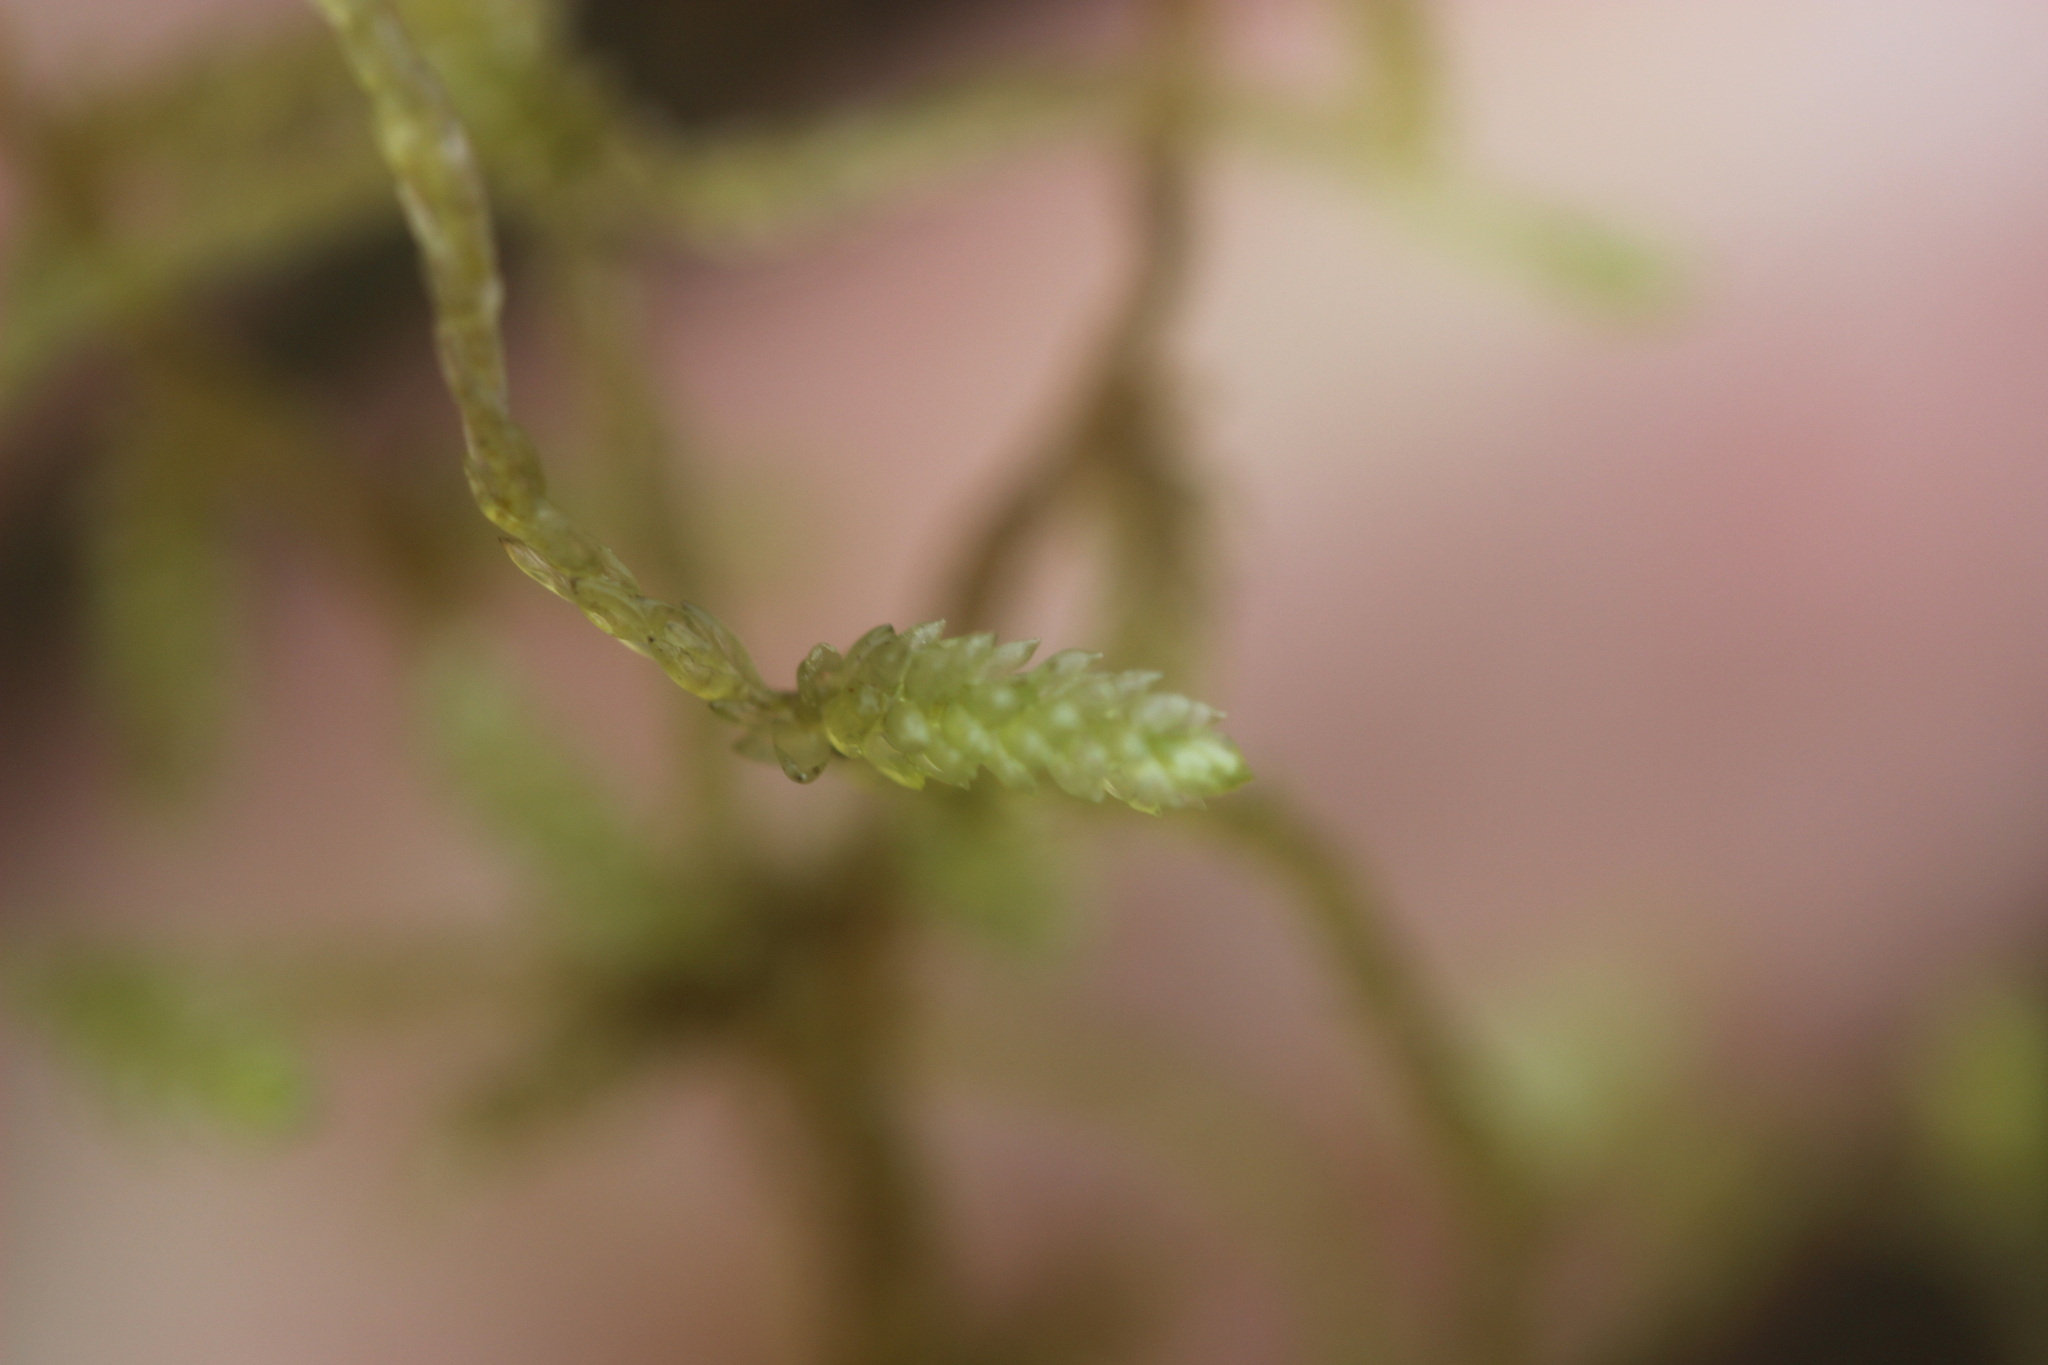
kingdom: Plantae
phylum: Bryophyta
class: Bryopsida
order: Hypnales
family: Lembophyllaceae
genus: Weymouthia
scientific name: Weymouthia mollis
